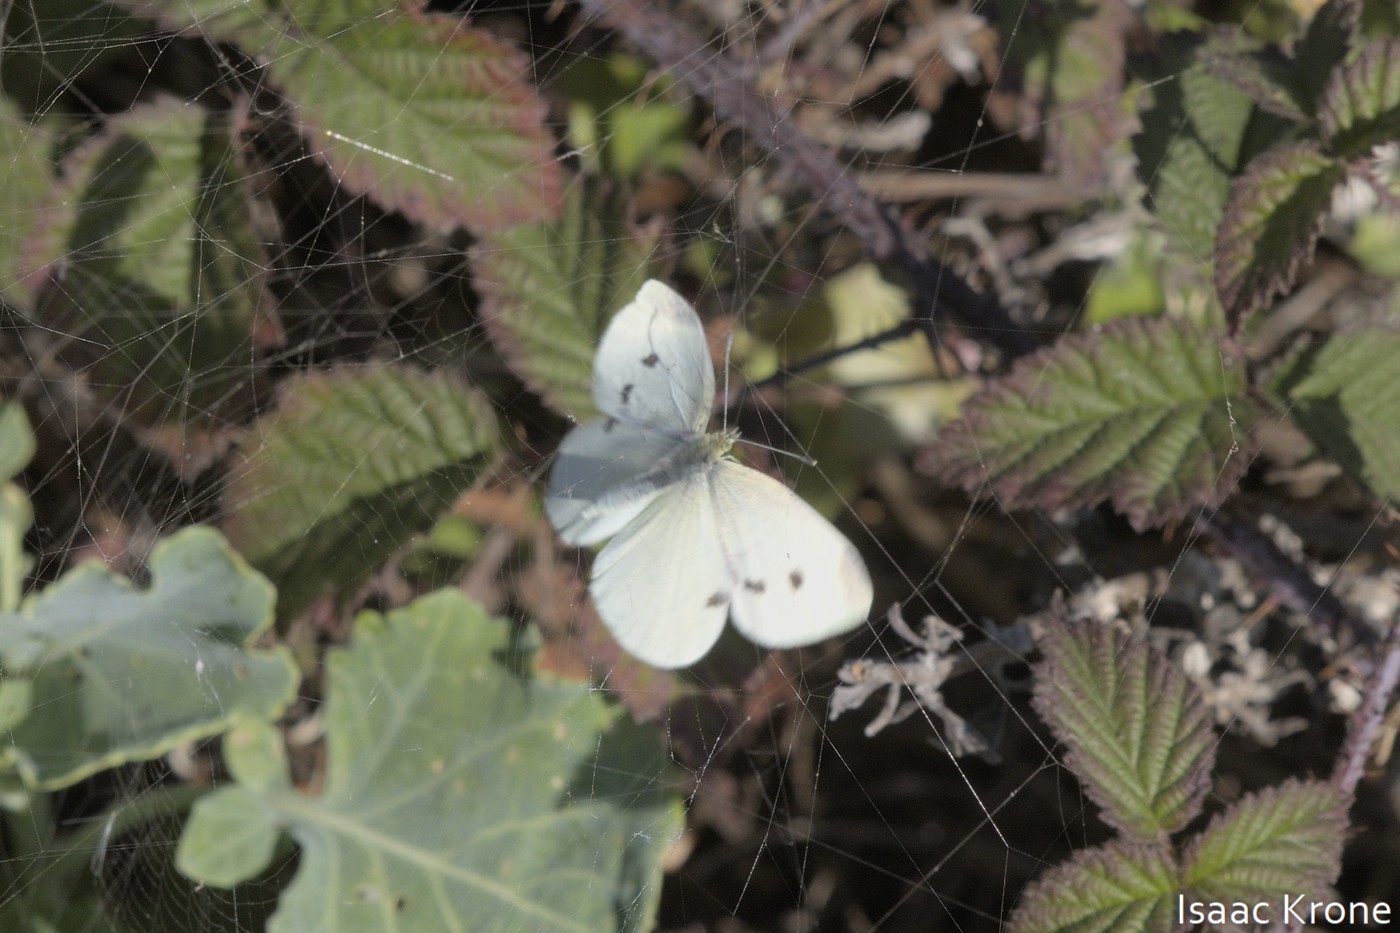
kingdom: Animalia
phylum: Arthropoda
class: Insecta
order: Lepidoptera
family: Pieridae
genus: Pieris
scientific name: Pieris rapae
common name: Small white
